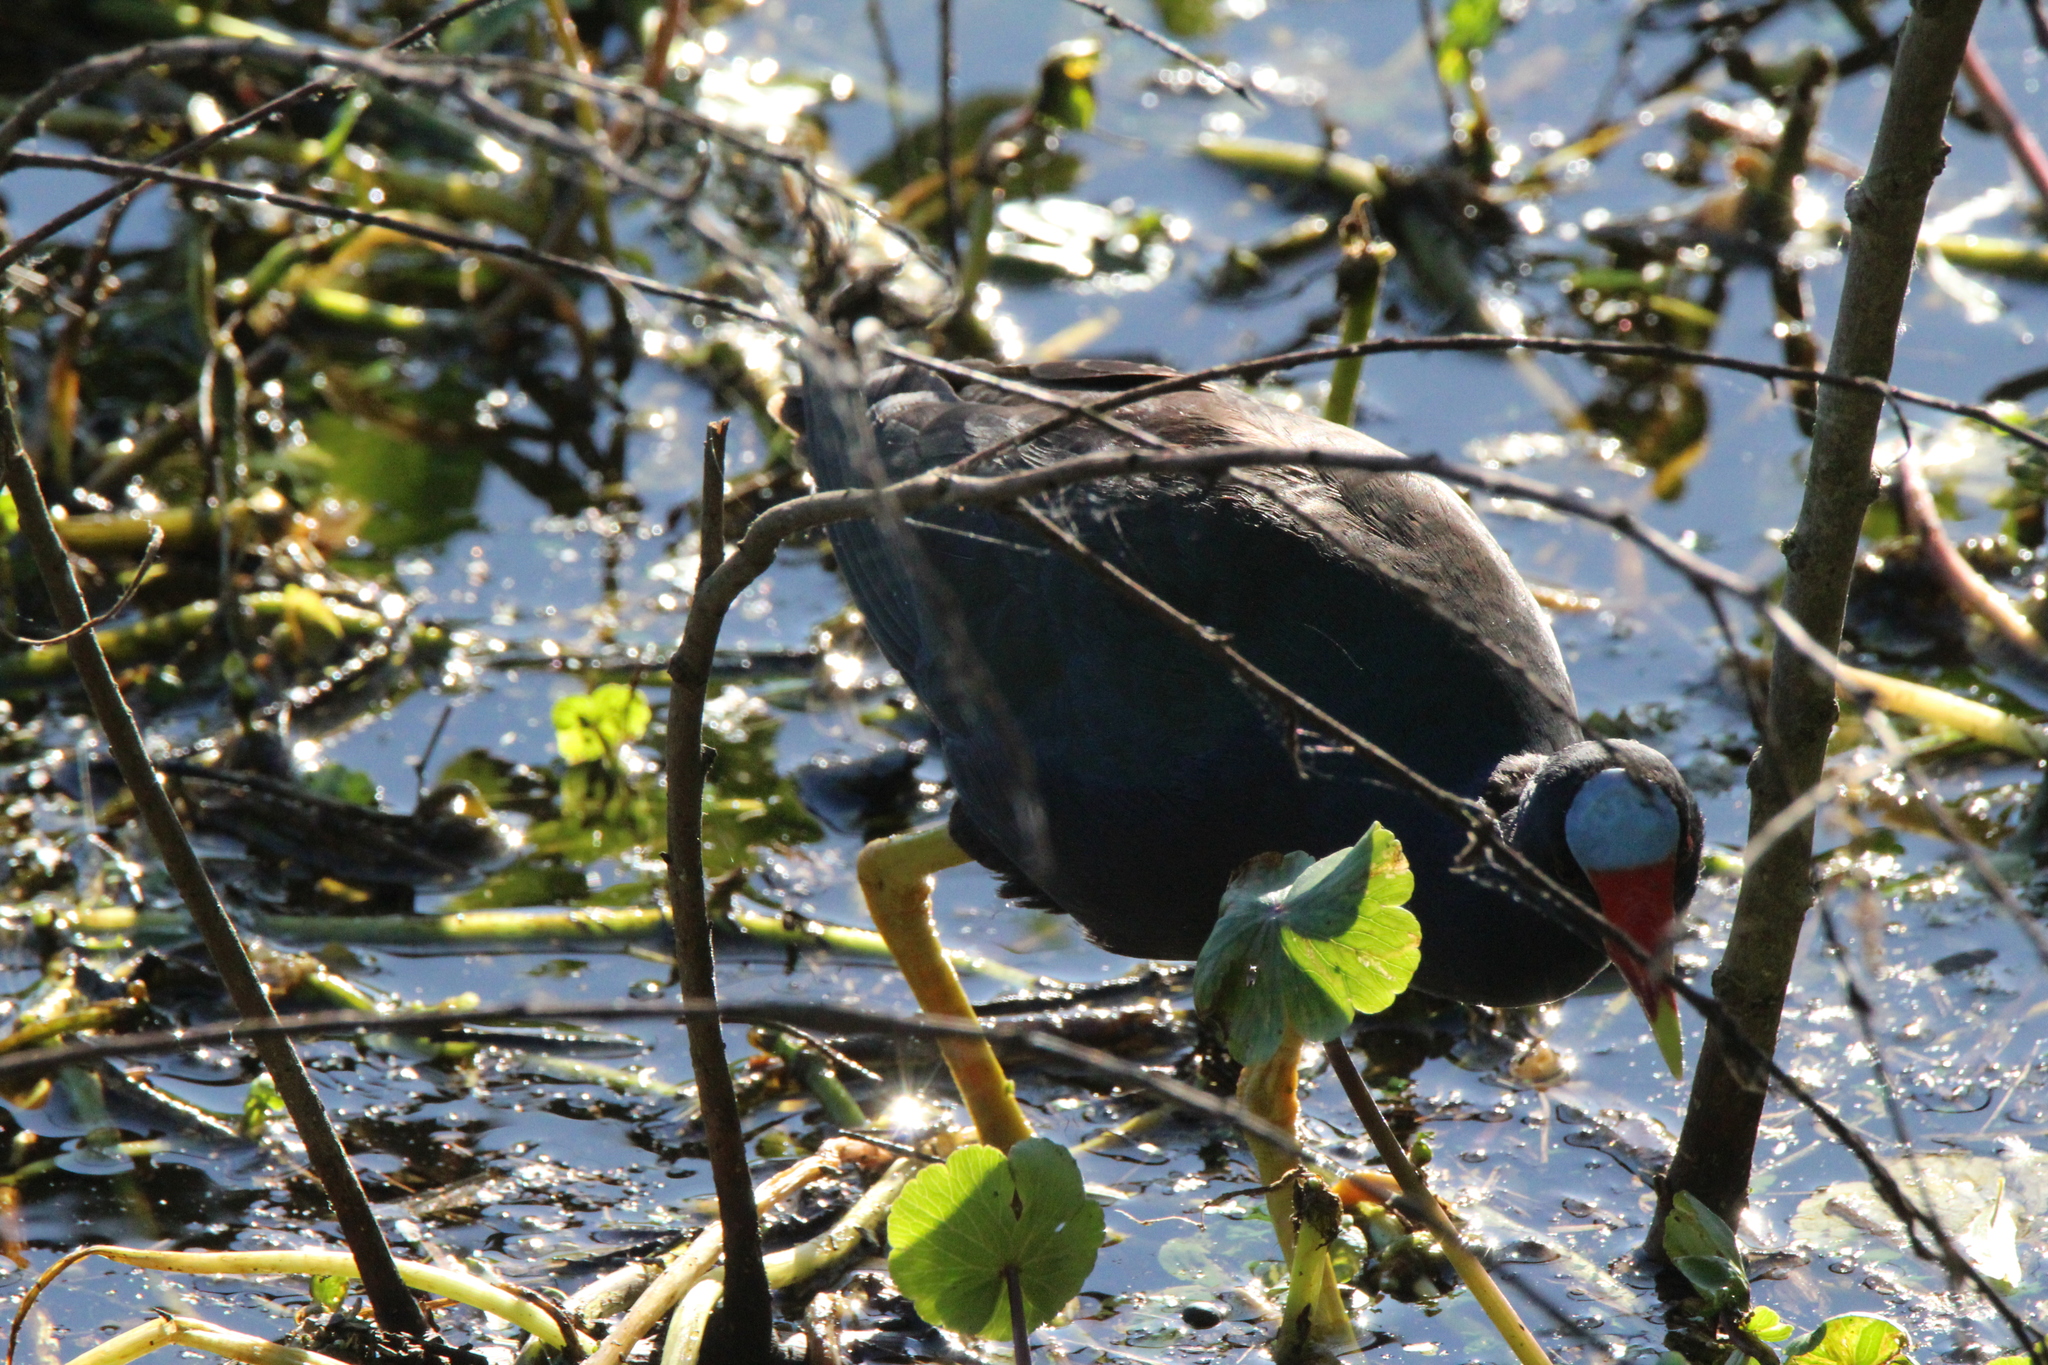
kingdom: Animalia
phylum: Chordata
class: Aves
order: Gruiformes
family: Rallidae
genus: Porphyrio
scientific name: Porphyrio martinica
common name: Purple gallinule
